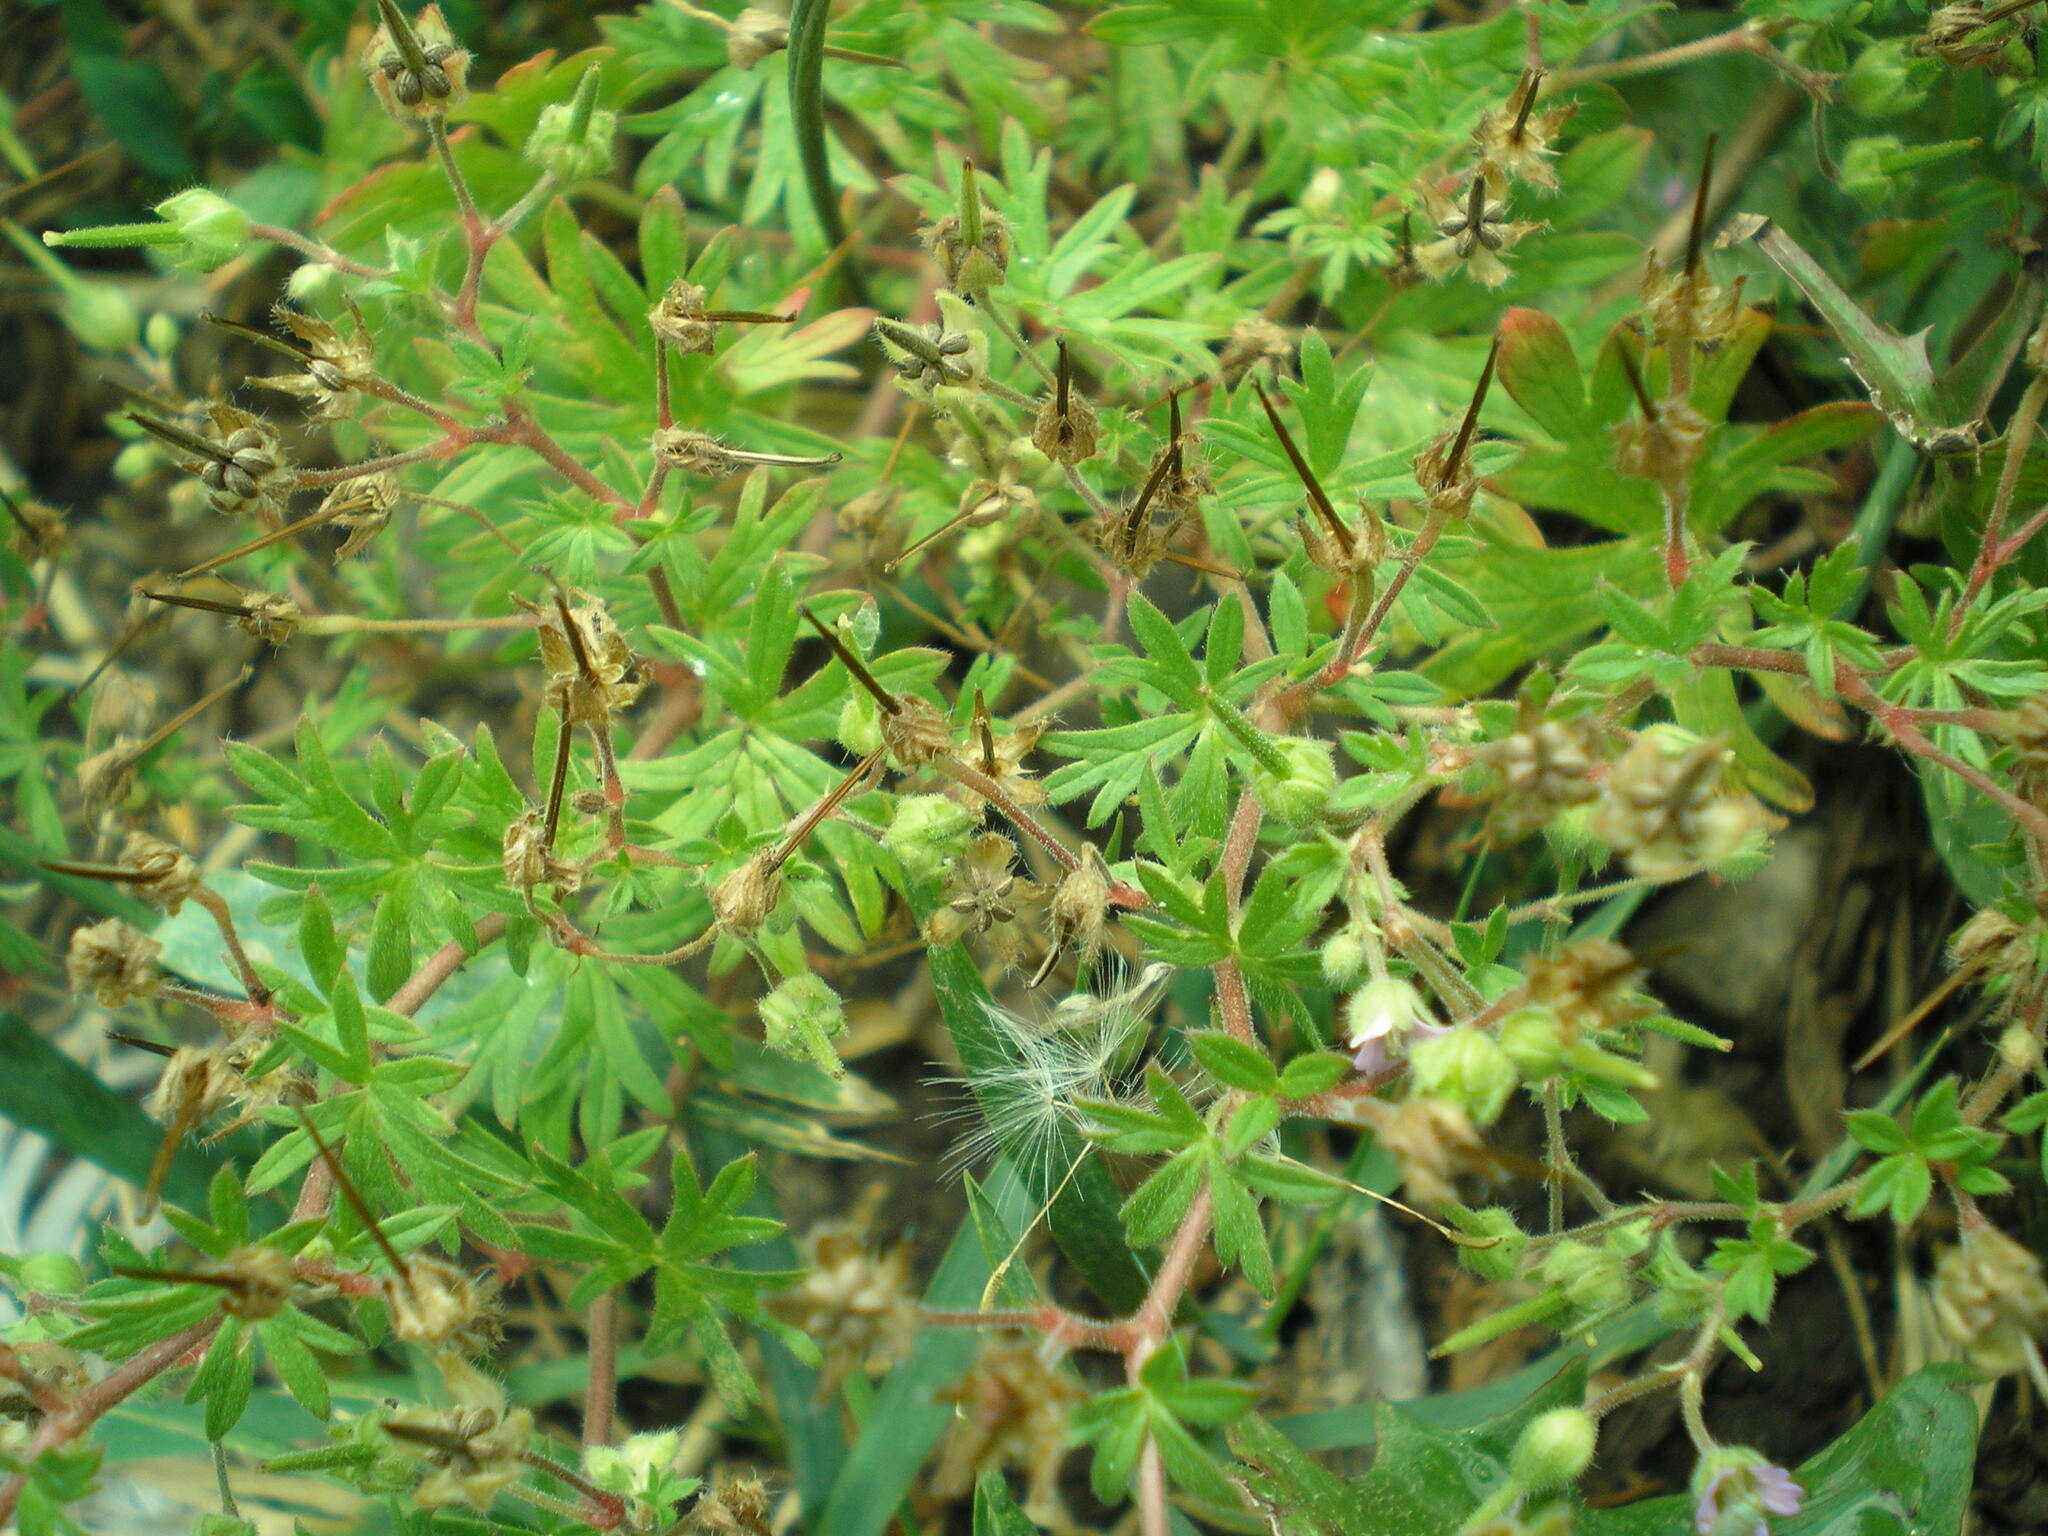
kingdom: Plantae
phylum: Tracheophyta
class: Magnoliopsida
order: Geraniales
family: Geraniaceae
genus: Geranium
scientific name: Geranium pusillum
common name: Small geranium
